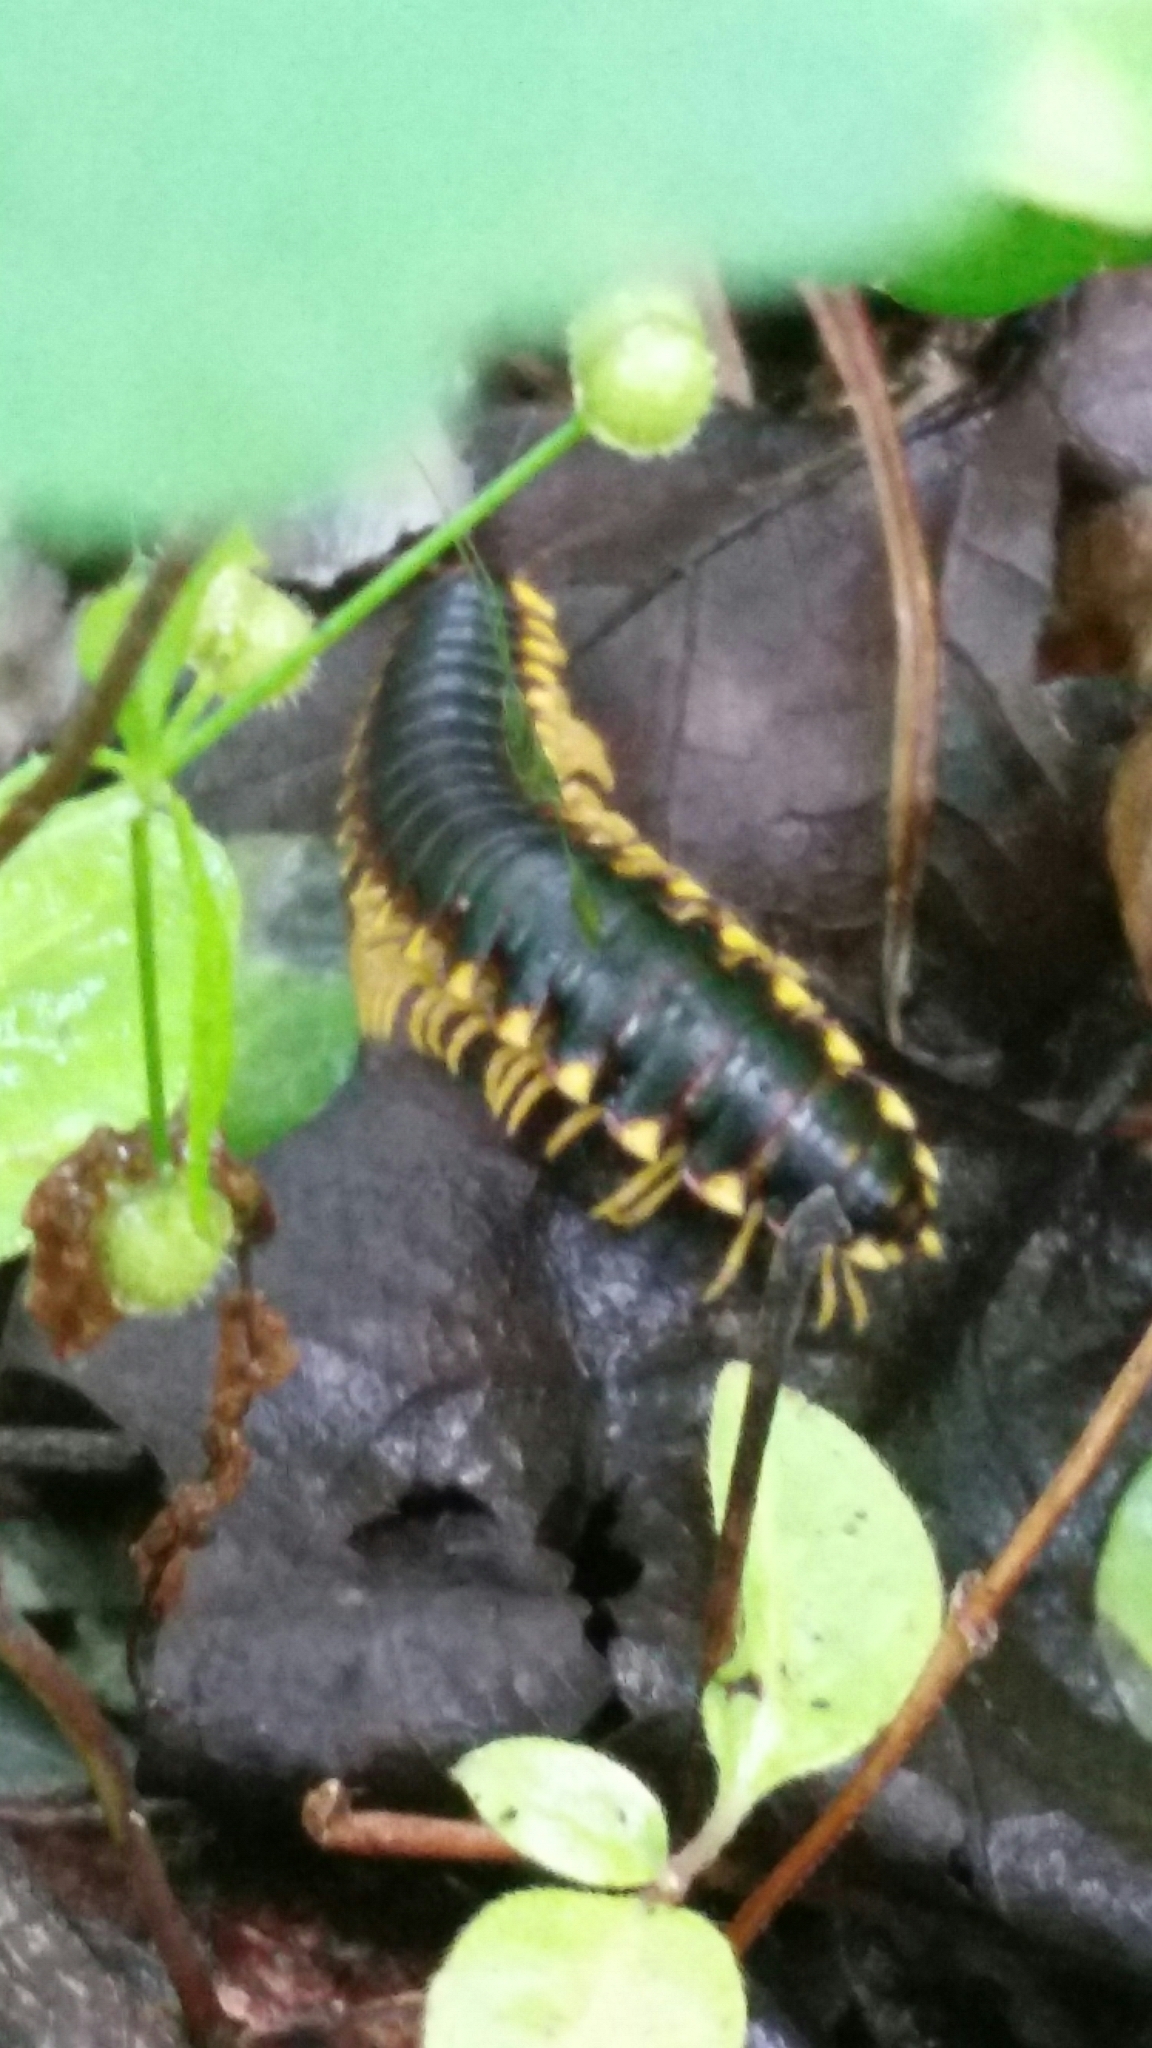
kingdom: Animalia
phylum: Arthropoda
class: Diplopoda
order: Polydesmida
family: Xystodesmidae
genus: Apheloria
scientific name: Apheloria tigana
